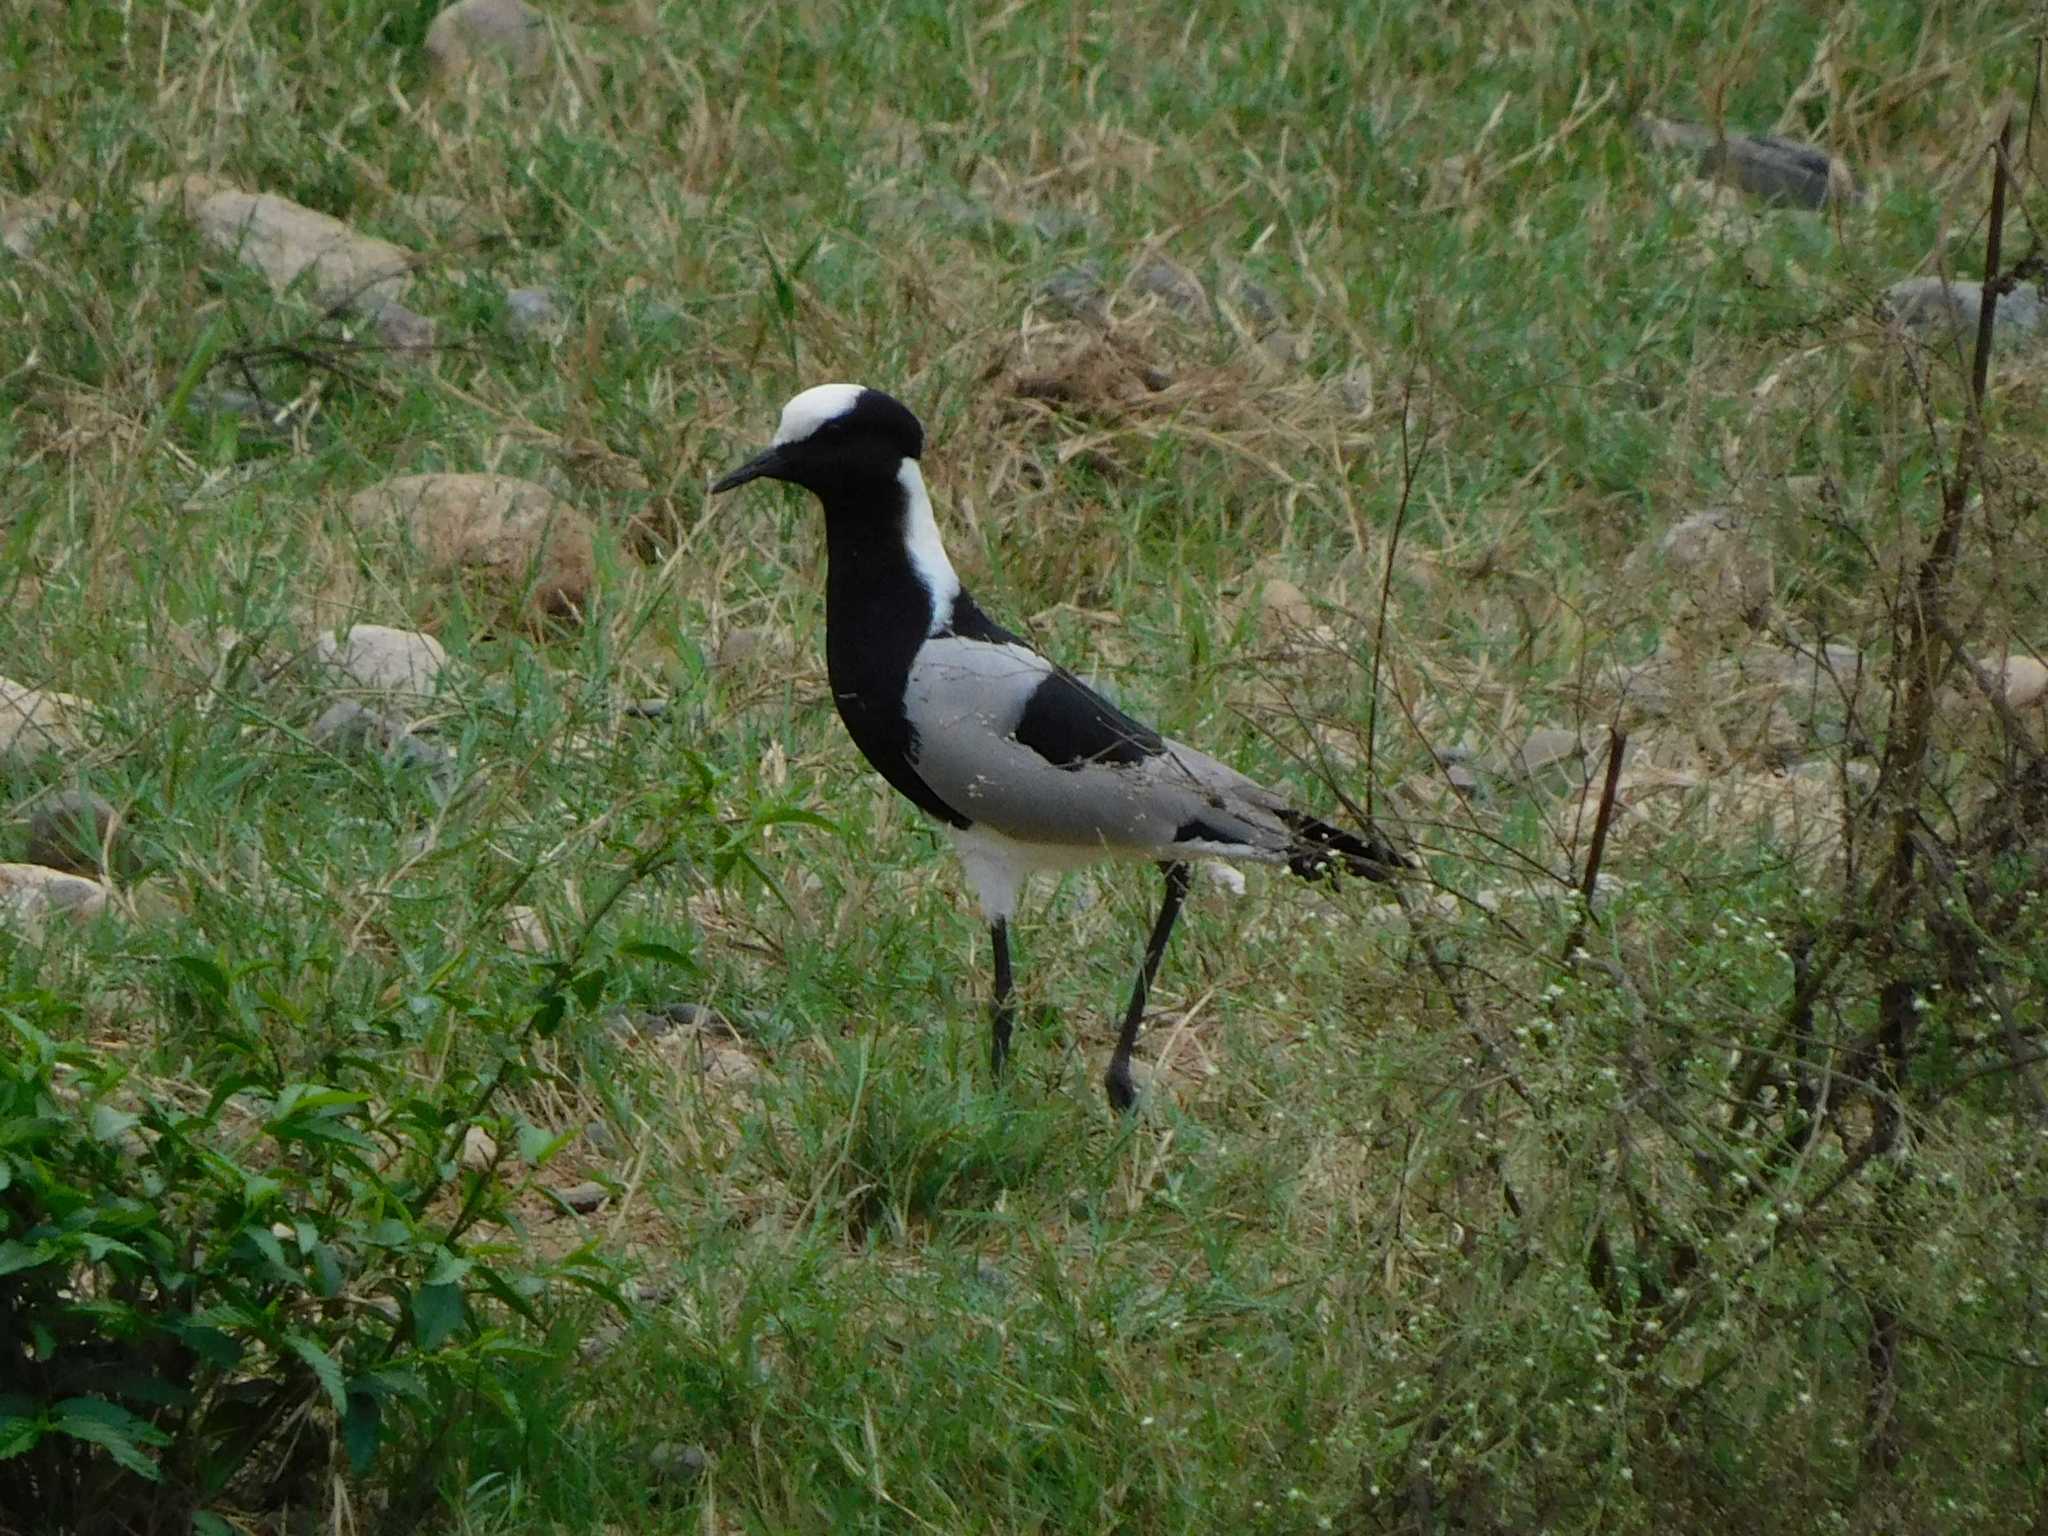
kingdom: Animalia
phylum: Chordata
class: Aves
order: Charadriiformes
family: Charadriidae
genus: Vanellus
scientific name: Vanellus armatus
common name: Blacksmith lapwing
